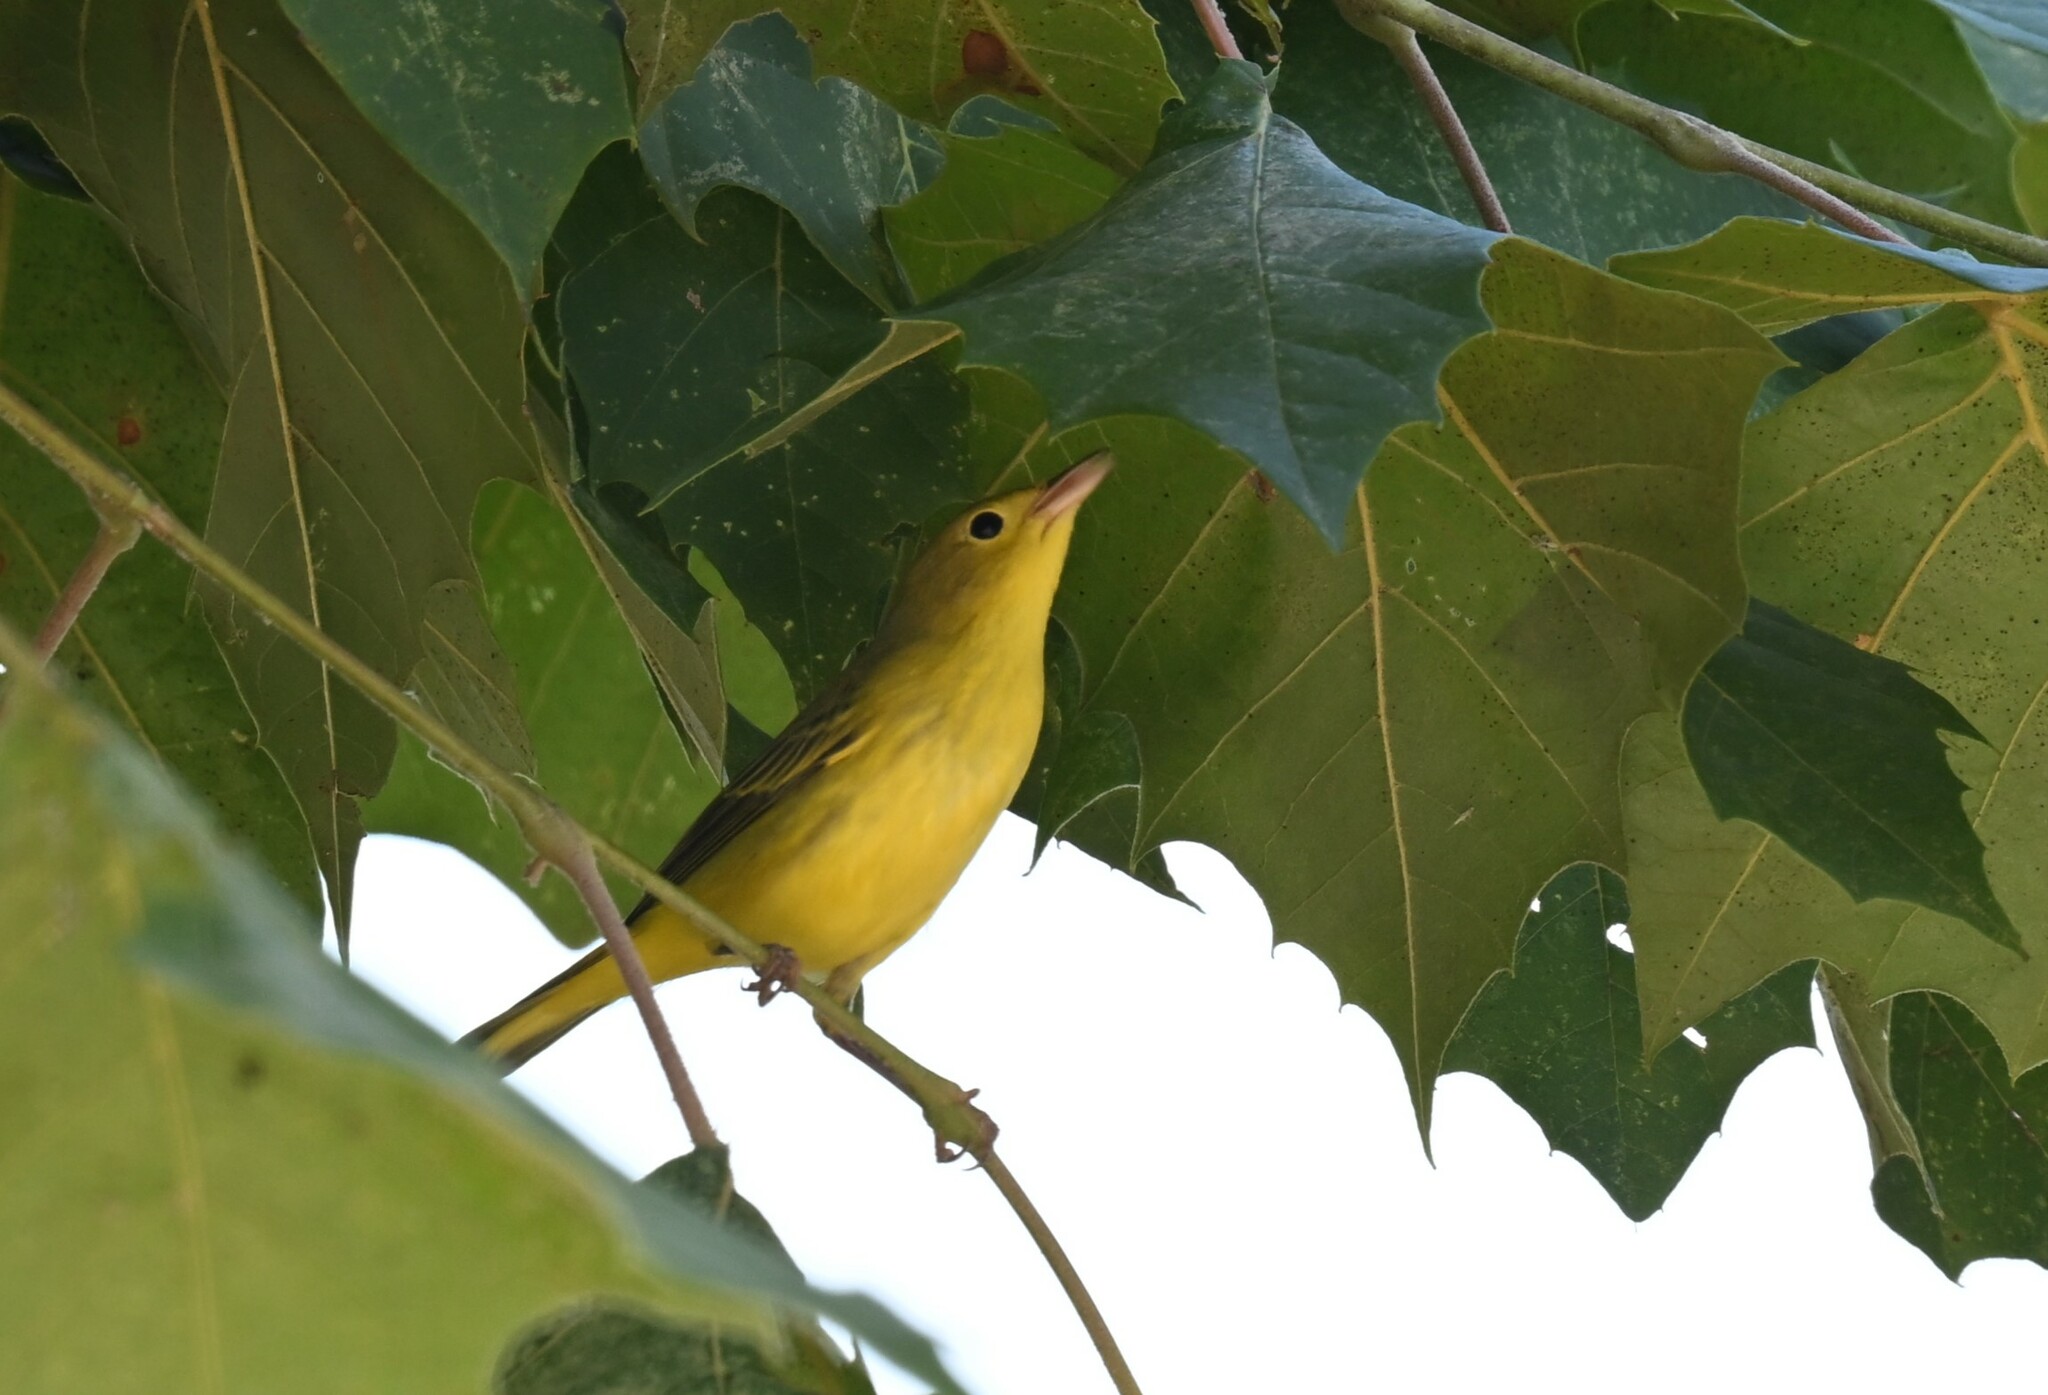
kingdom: Animalia
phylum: Chordata
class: Aves
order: Passeriformes
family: Parulidae
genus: Setophaga
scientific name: Setophaga petechia
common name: Yellow warbler
